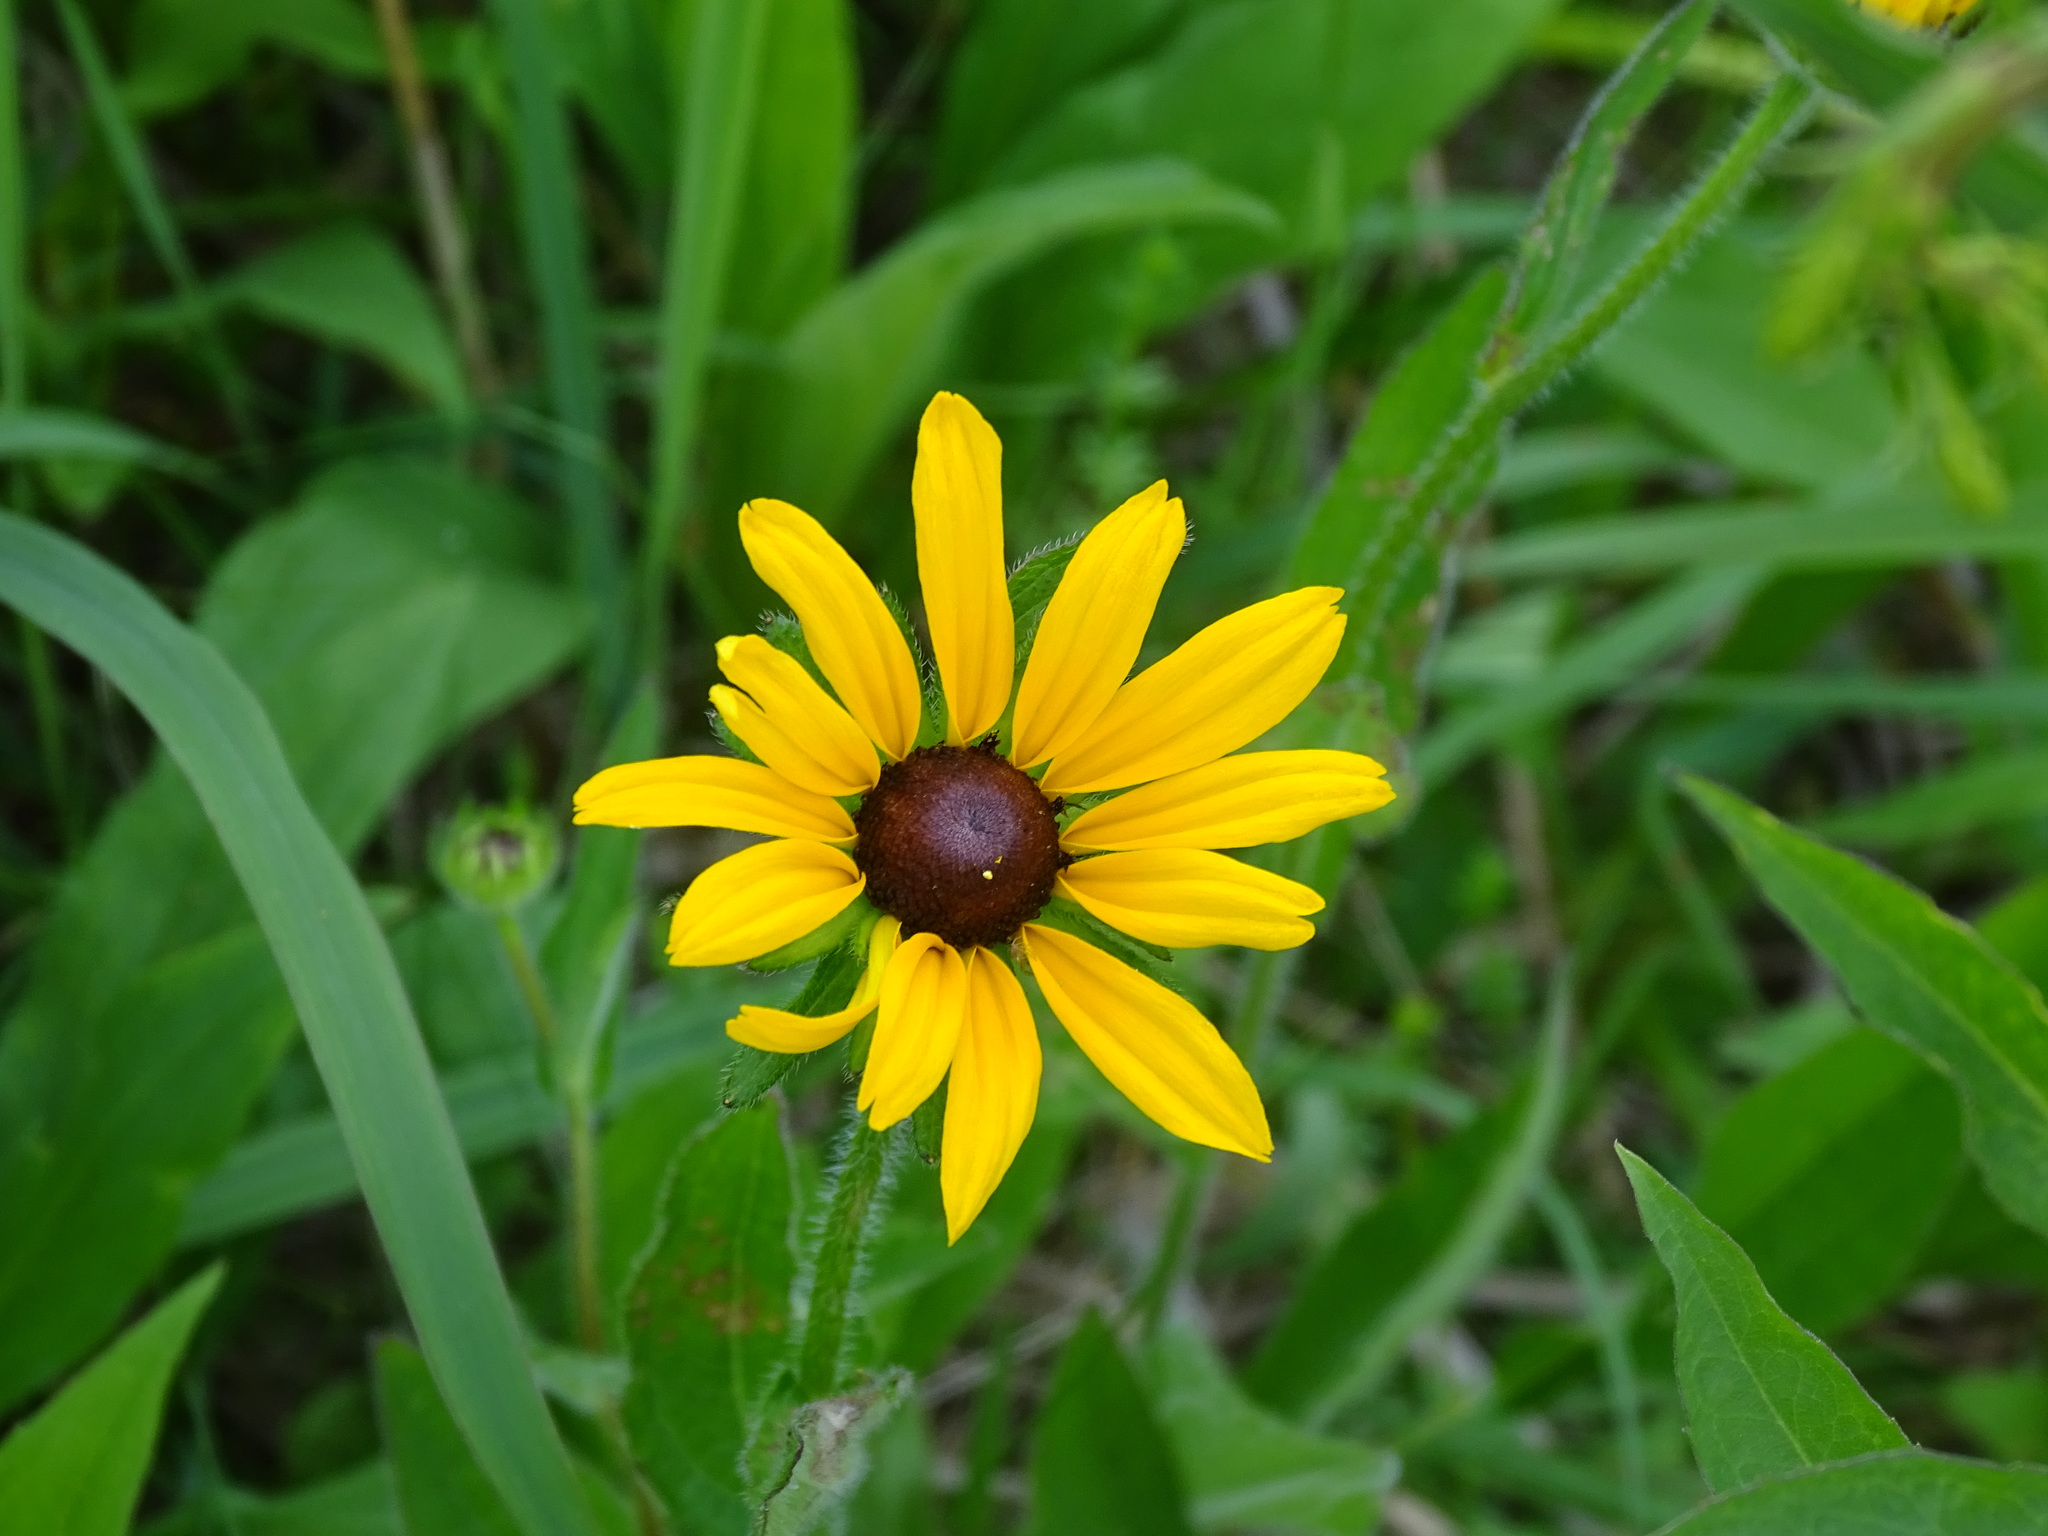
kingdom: Plantae
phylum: Tracheophyta
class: Magnoliopsida
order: Asterales
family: Asteraceae
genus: Rudbeckia
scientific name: Rudbeckia hirta
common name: Black-eyed-susan
